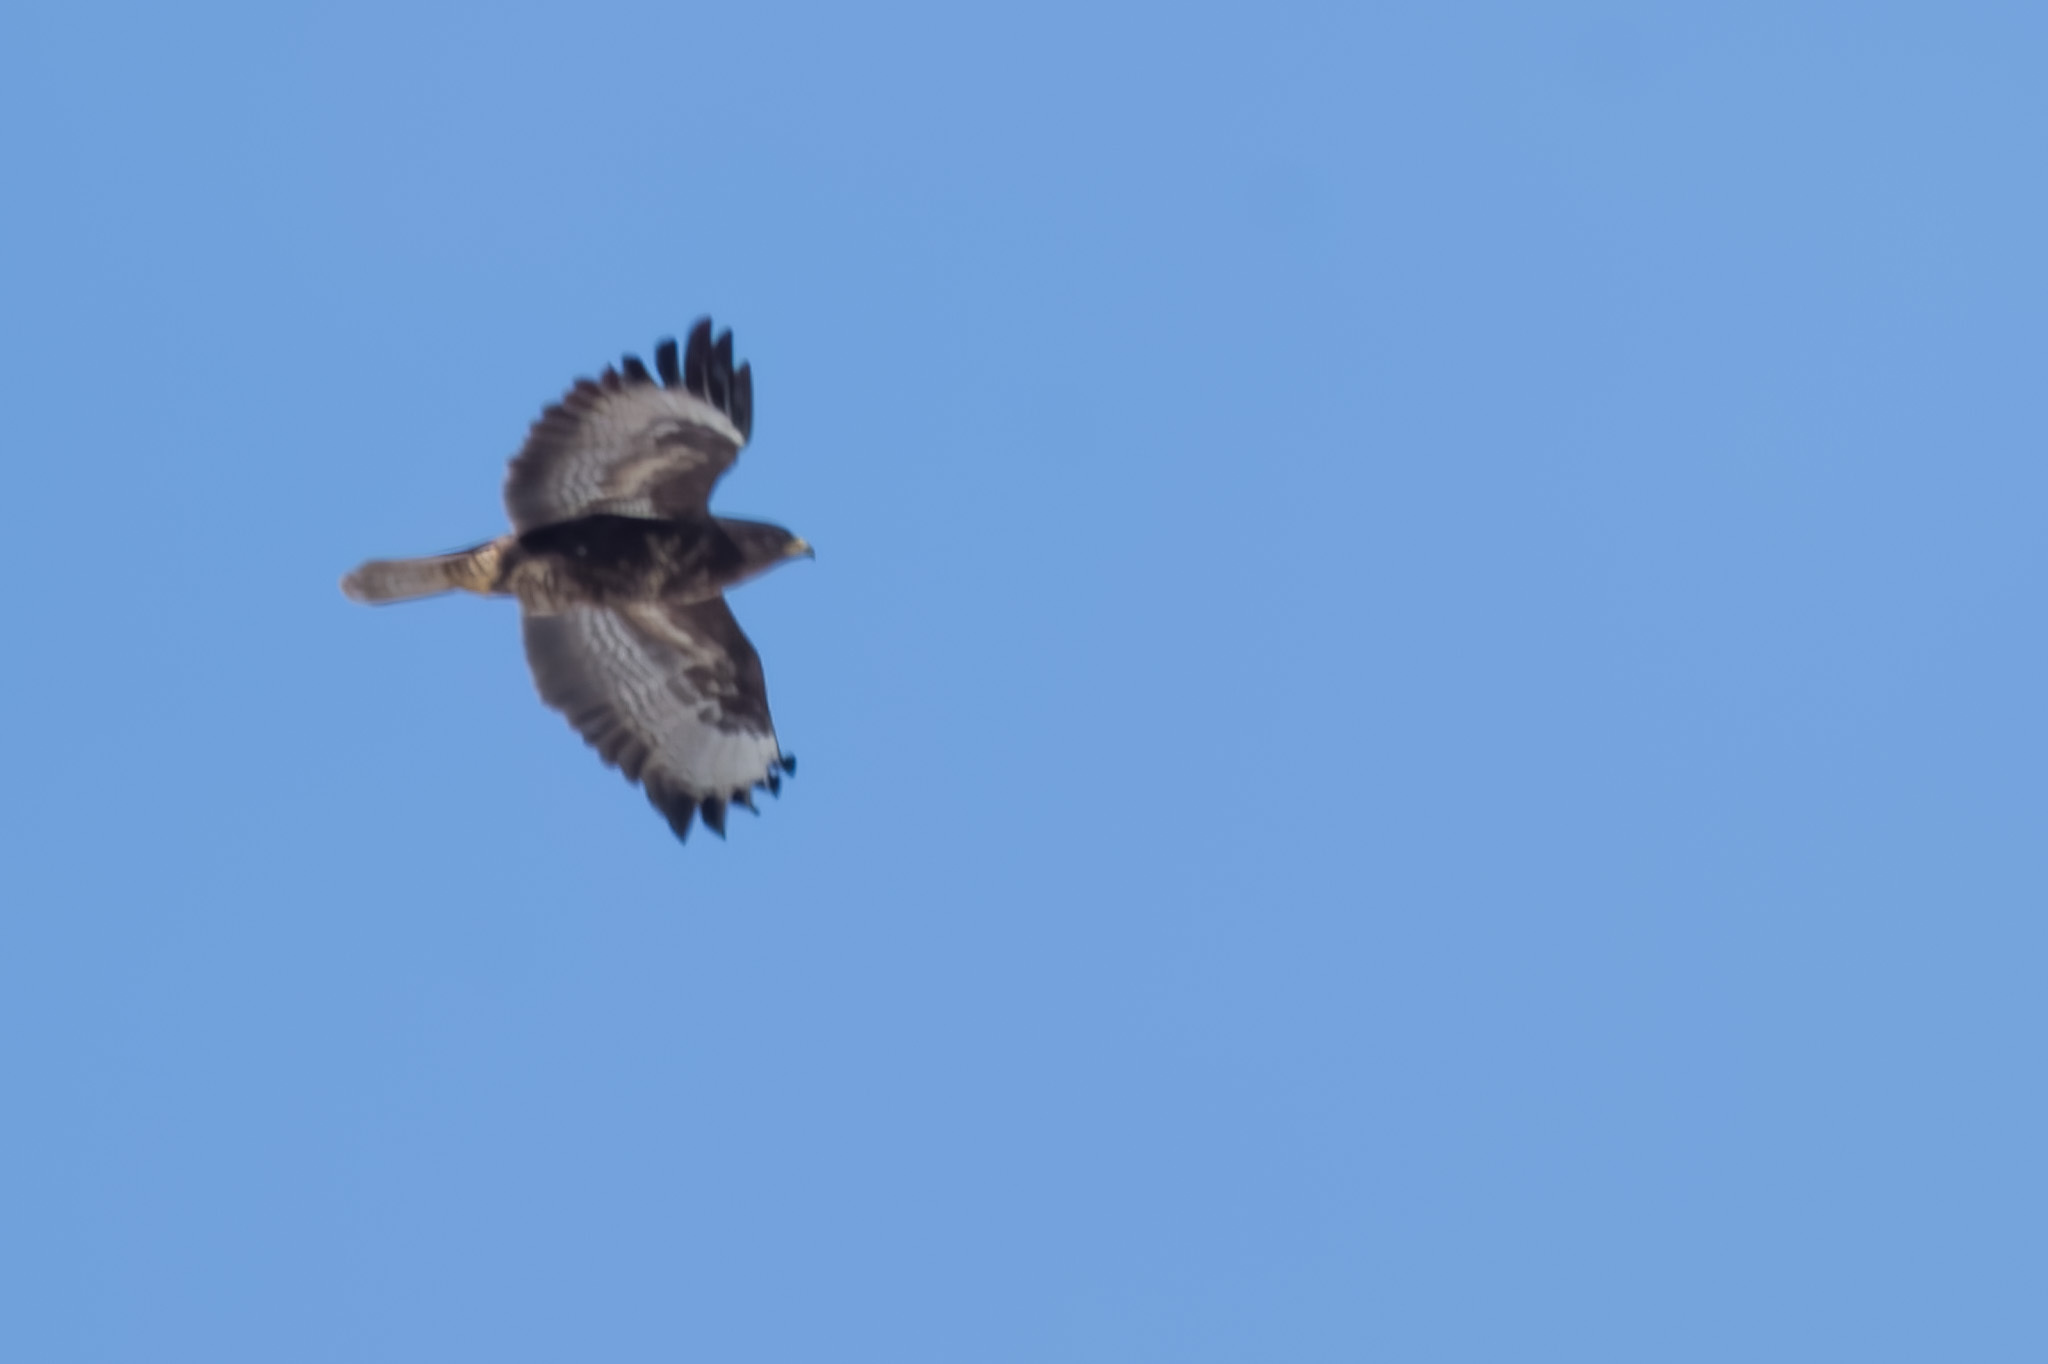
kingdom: Animalia
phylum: Chordata
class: Aves
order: Accipitriformes
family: Accipitridae
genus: Buteo
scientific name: Buteo buteo
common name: Common buzzard
